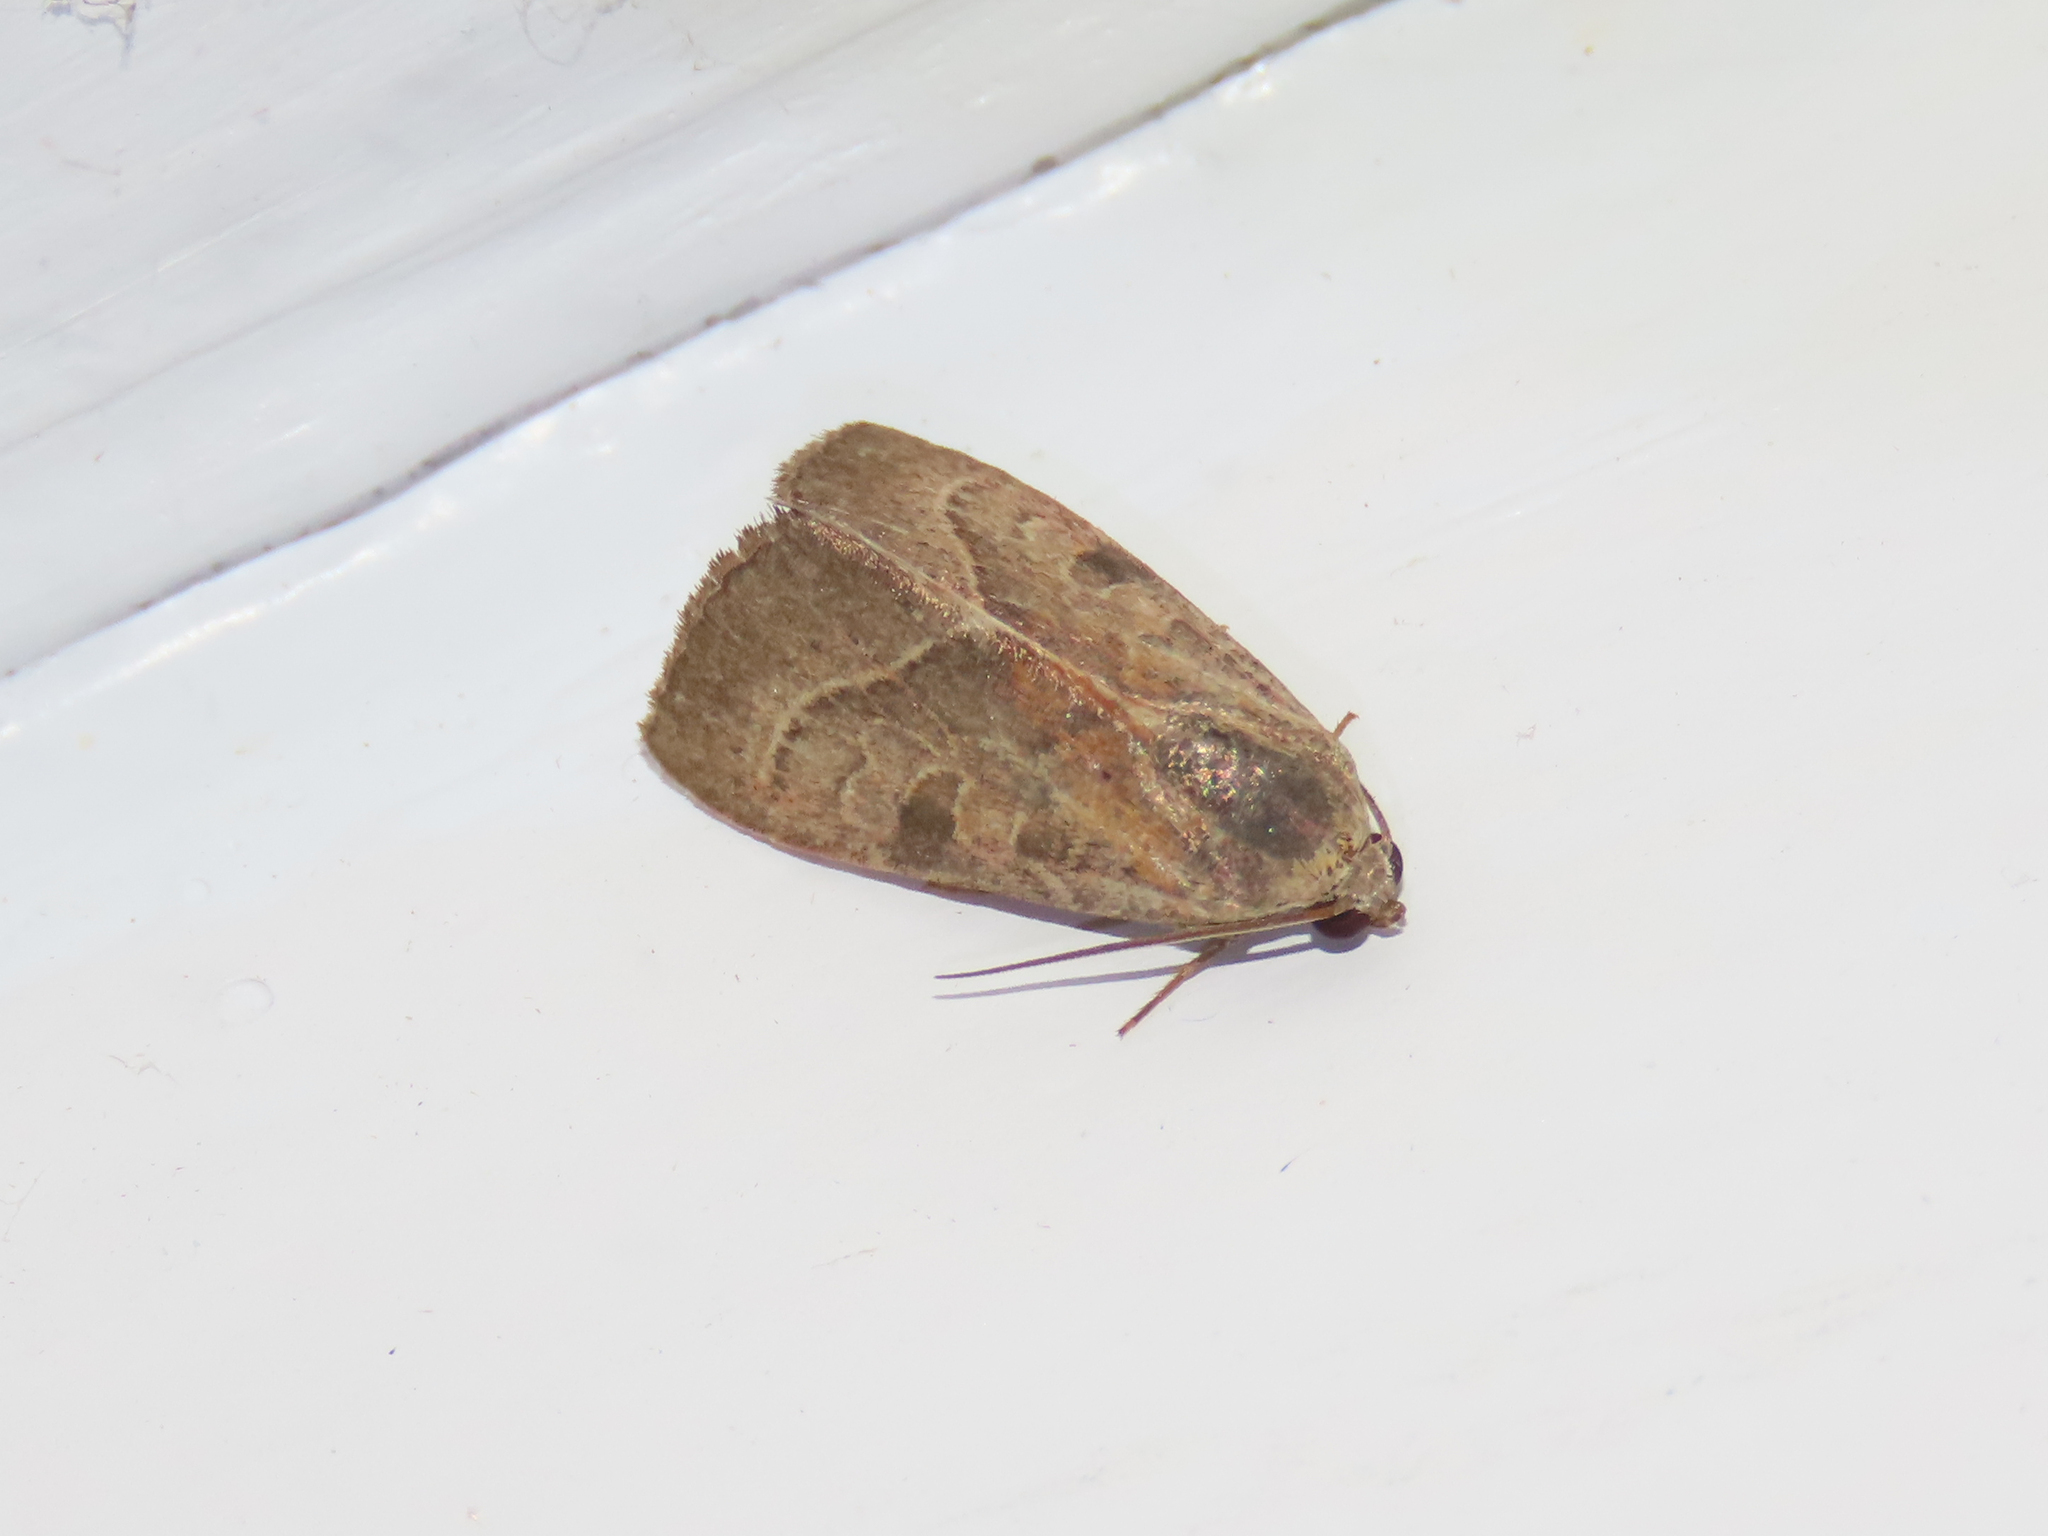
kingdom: Animalia
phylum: Arthropoda
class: Insecta
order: Lepidoptera
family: Noctuidae
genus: Galgula
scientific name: Galgula partita
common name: Wedgeling
